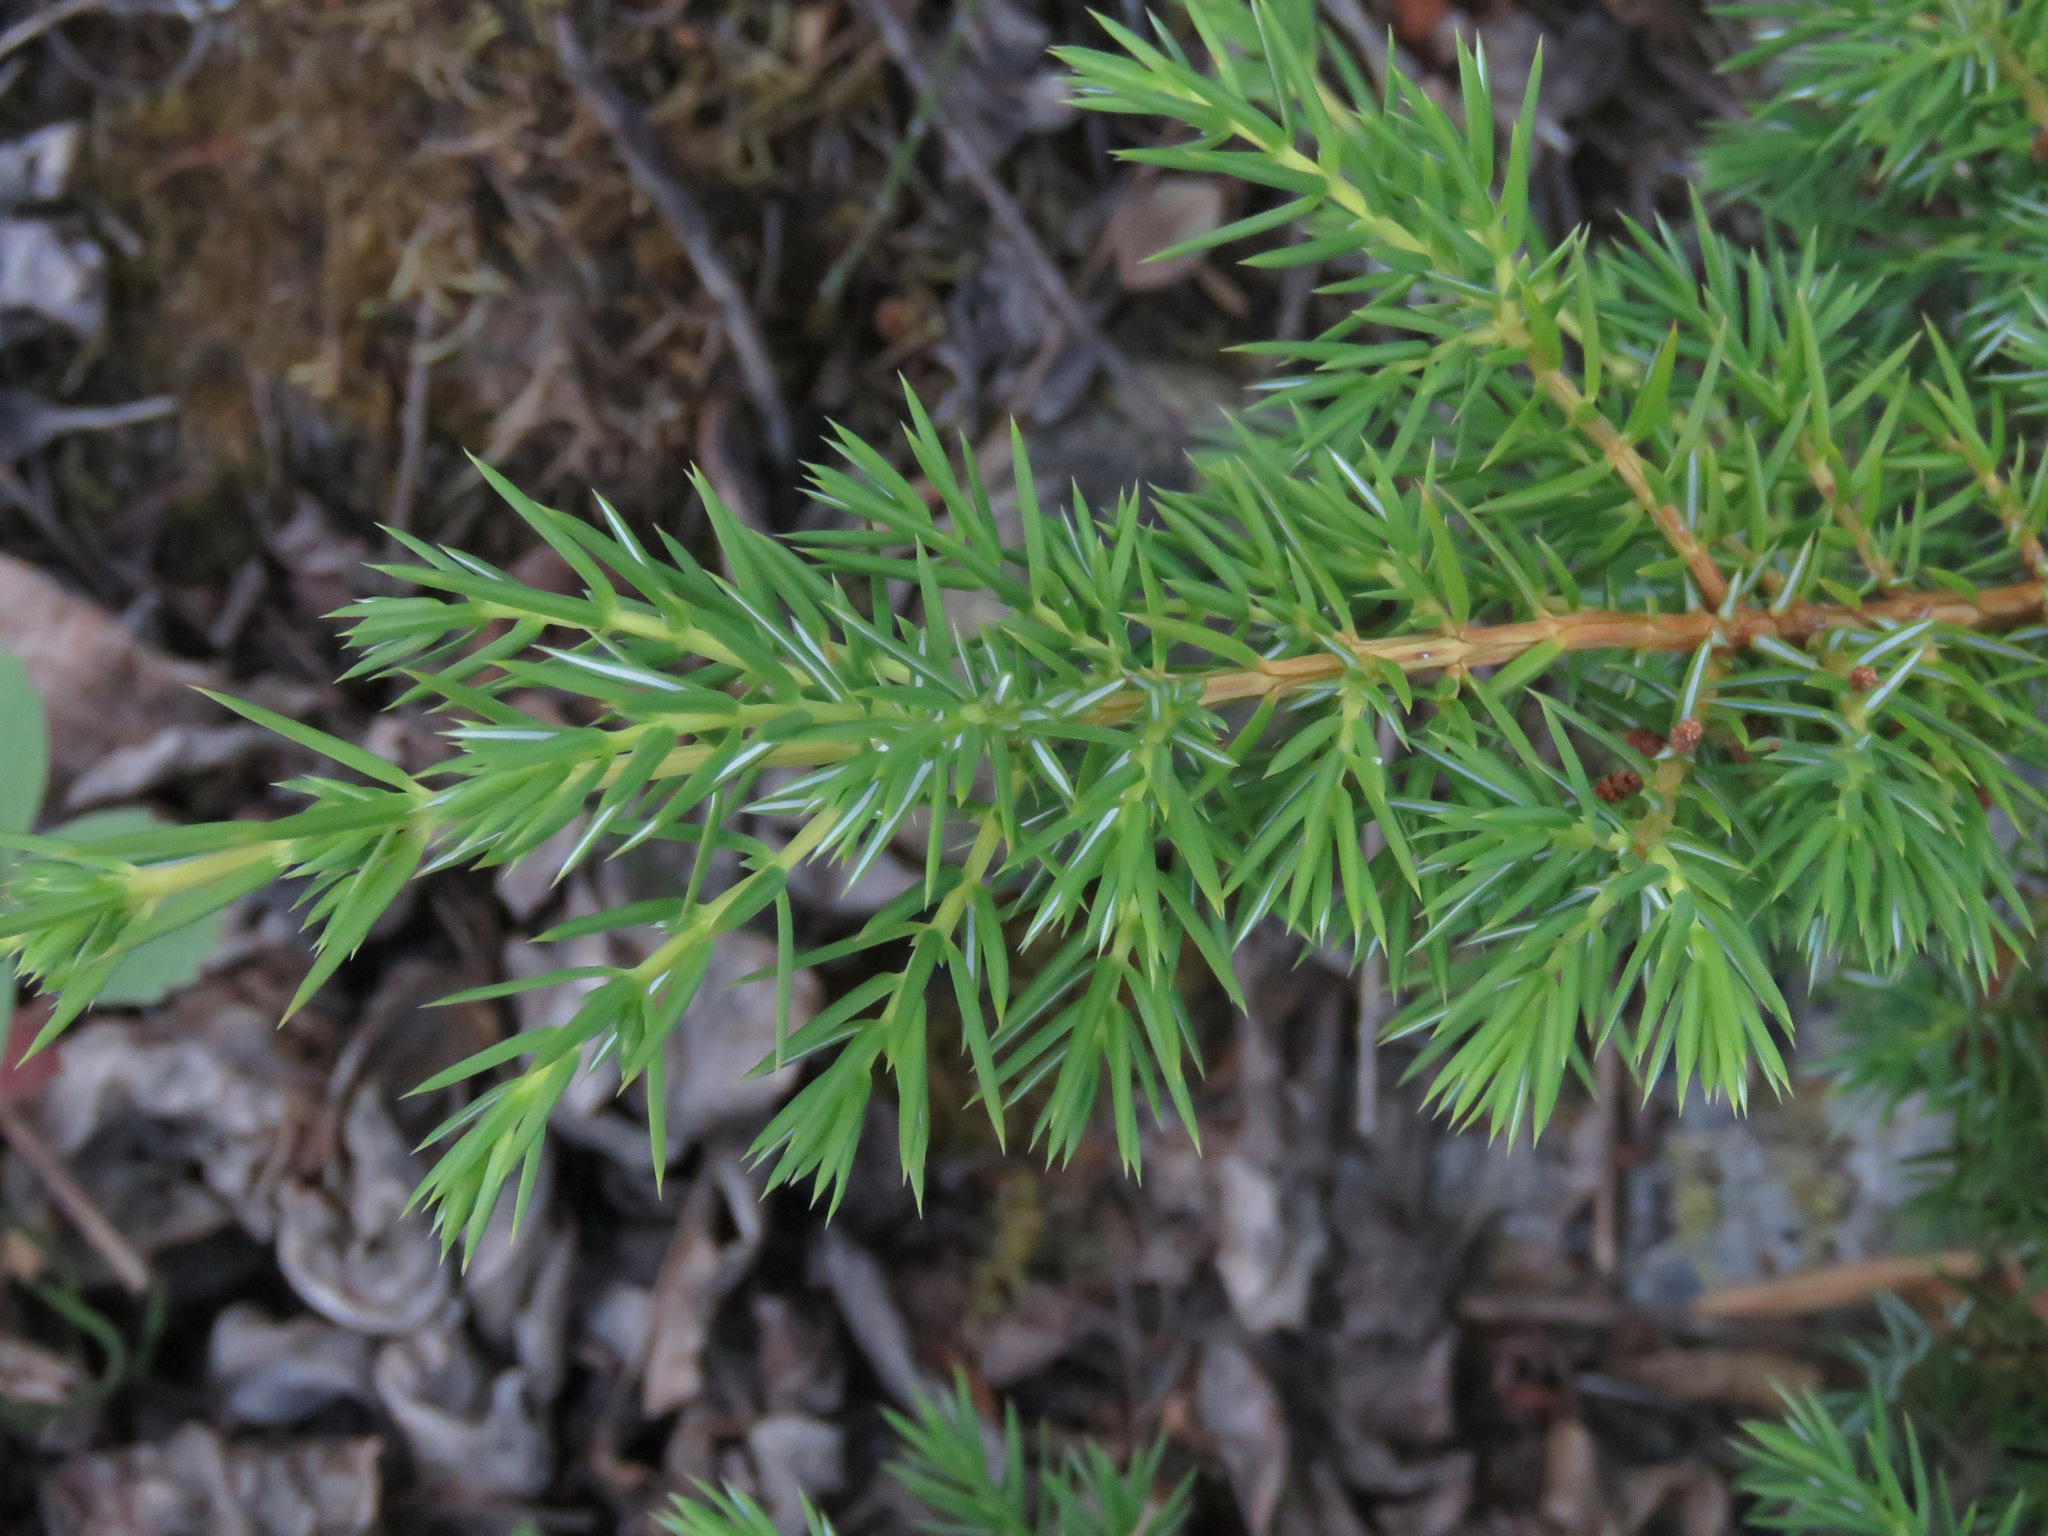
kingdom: Plantae
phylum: Tracheophyta
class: Pinopsida
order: Pinales
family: Cupressaceae
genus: Juniperus
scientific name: Juniperus communis
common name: Common juniper
